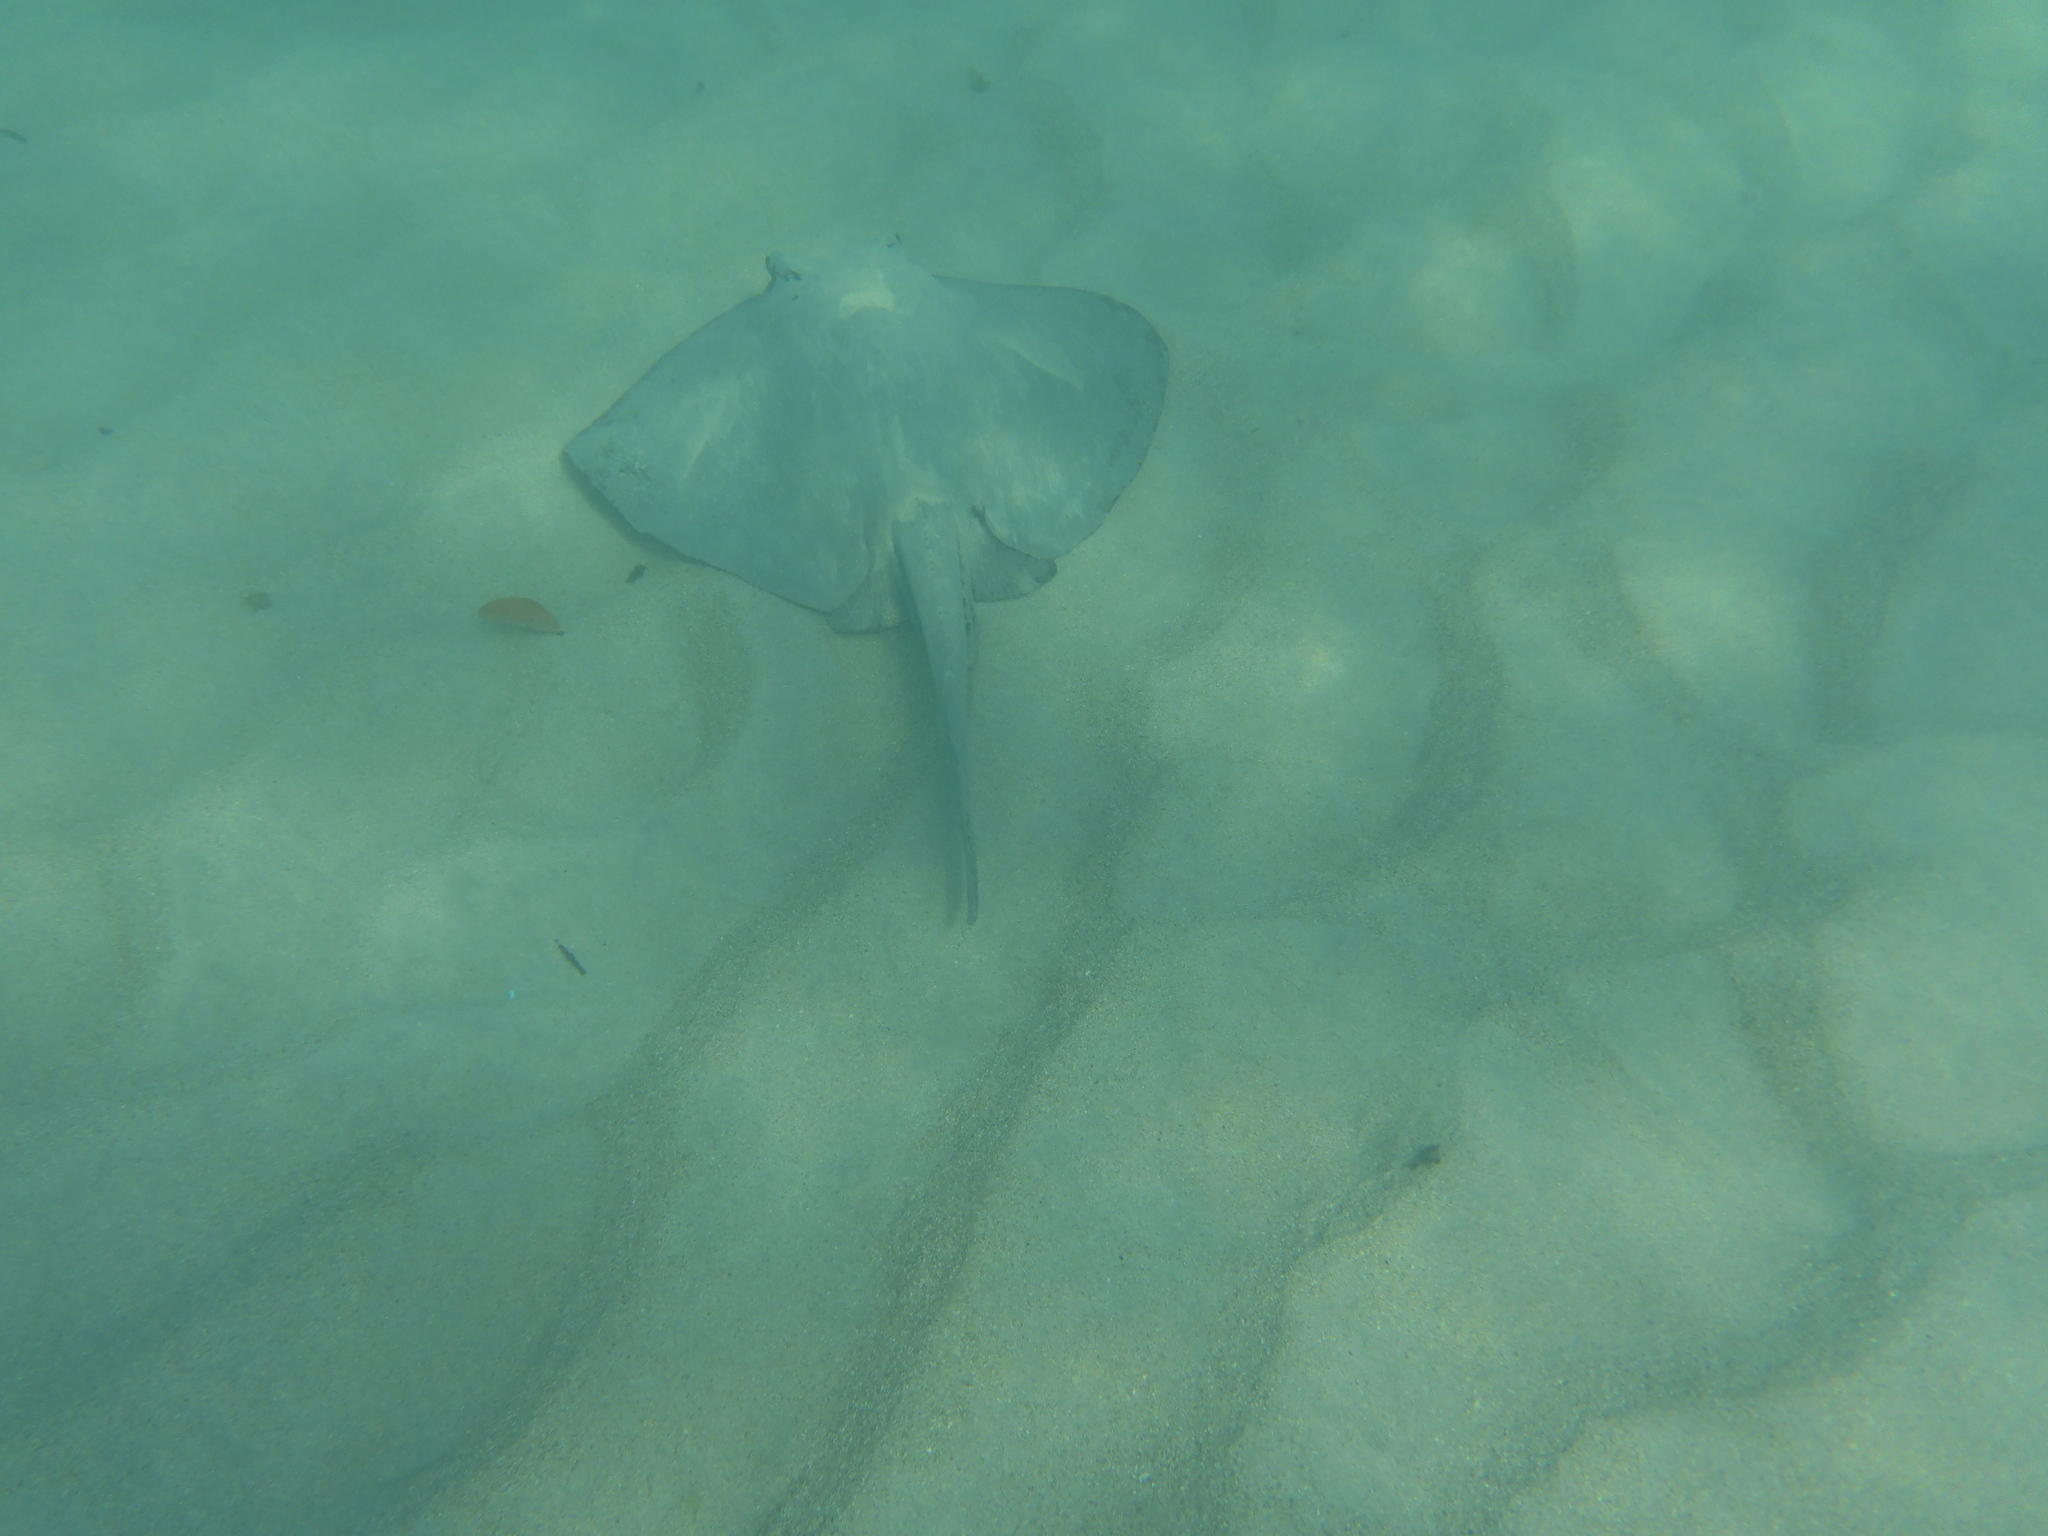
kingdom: Animalia
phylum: Chordata
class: Elasmobranchii
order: Myliobatiformes
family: Dasyatidae
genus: Hypanus
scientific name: Hypanus dipterurus
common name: Diamond stingray
